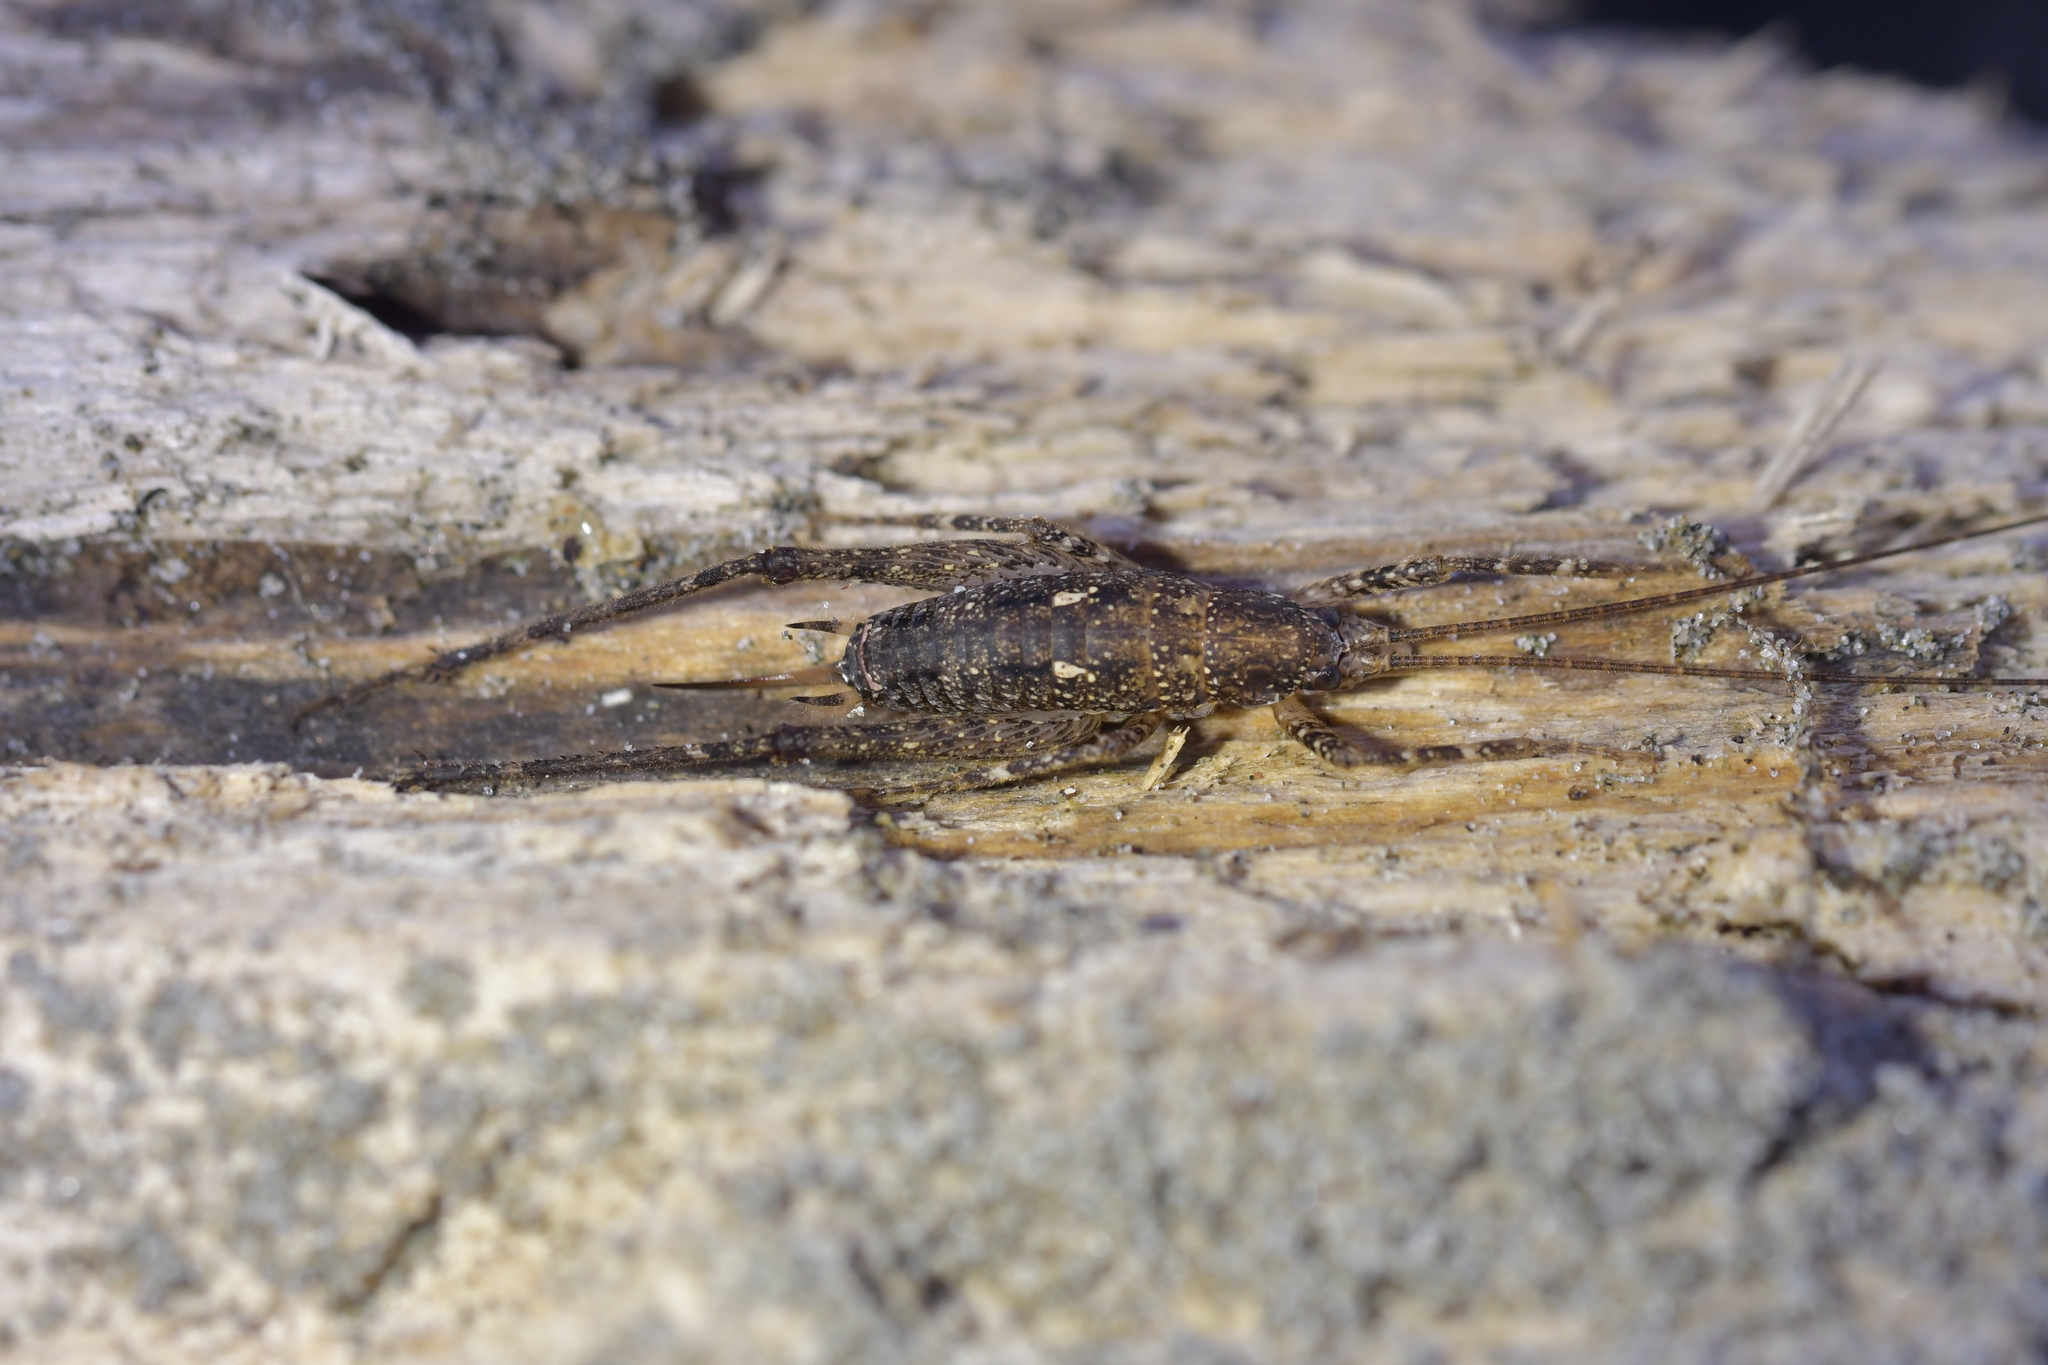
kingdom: Animalia
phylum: Arthropoda
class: Insecta
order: Orthoptera
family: Rhaphidophoridae
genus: Isoplectron
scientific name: Isoplectron armatum
